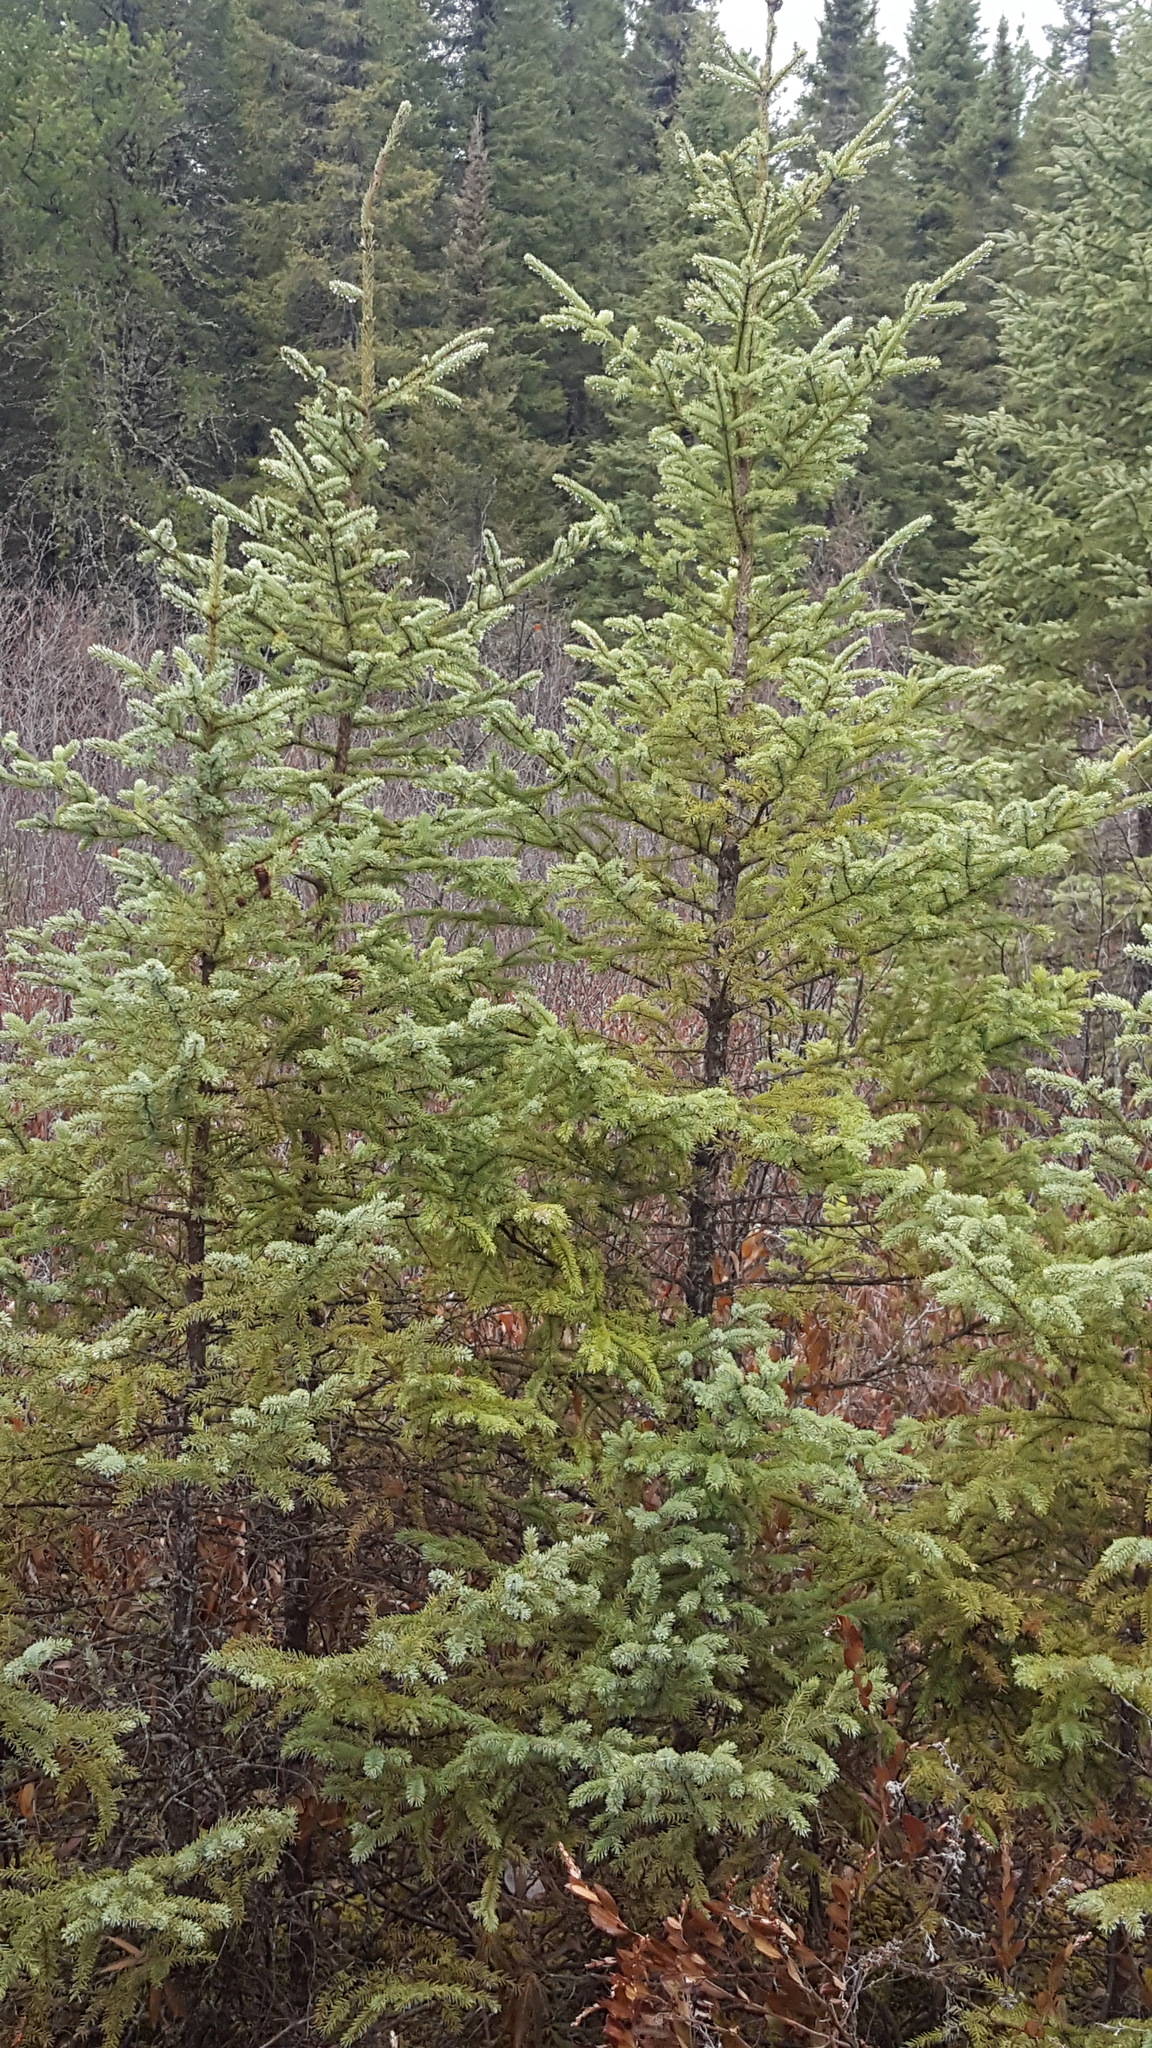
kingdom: Plantae
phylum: Tracheophyta
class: Pinopsida
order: Pinales
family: Pinaceae
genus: Picea
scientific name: Picea mariana
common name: Black spruce
